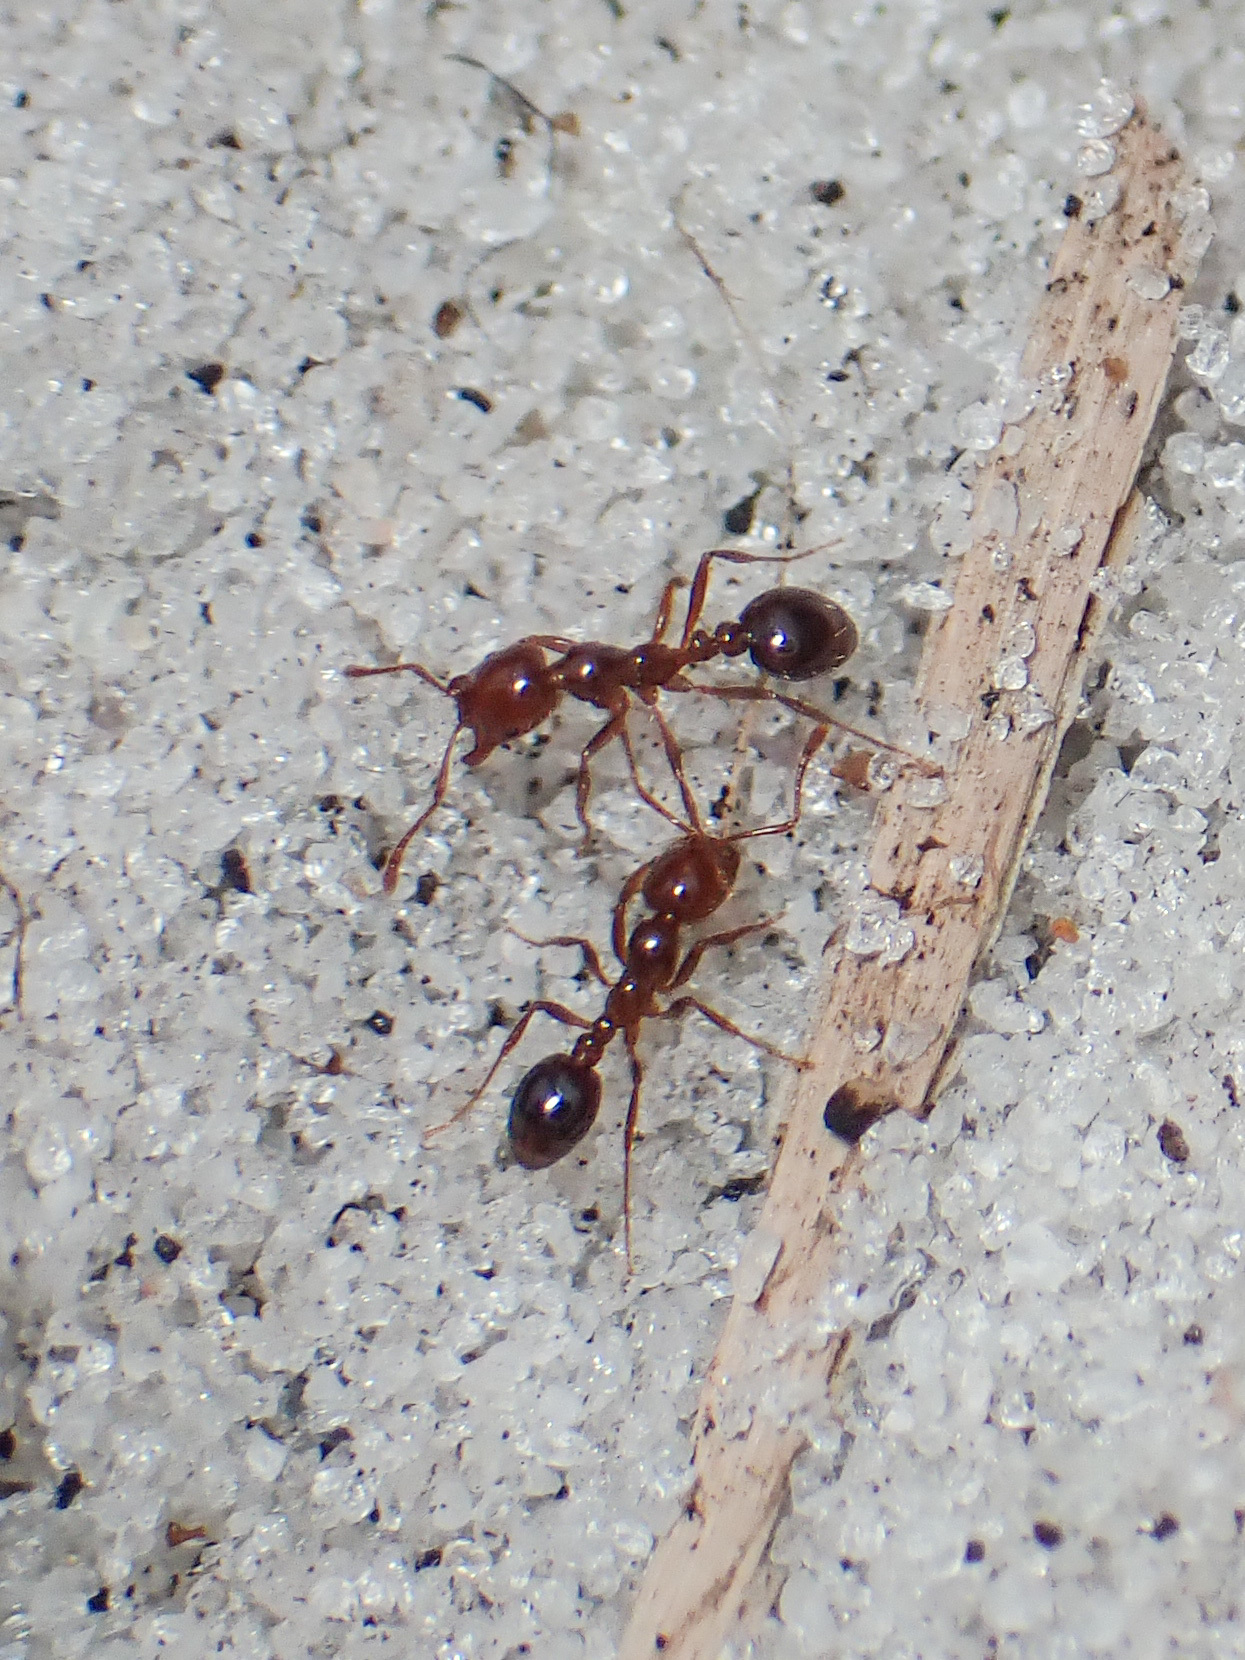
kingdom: Animalia
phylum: Arthropoda
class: Insecta
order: Hymenoptera
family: Formicidae
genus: Solenopsis
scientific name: Solenopsis invicta
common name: Red imported fire ant
